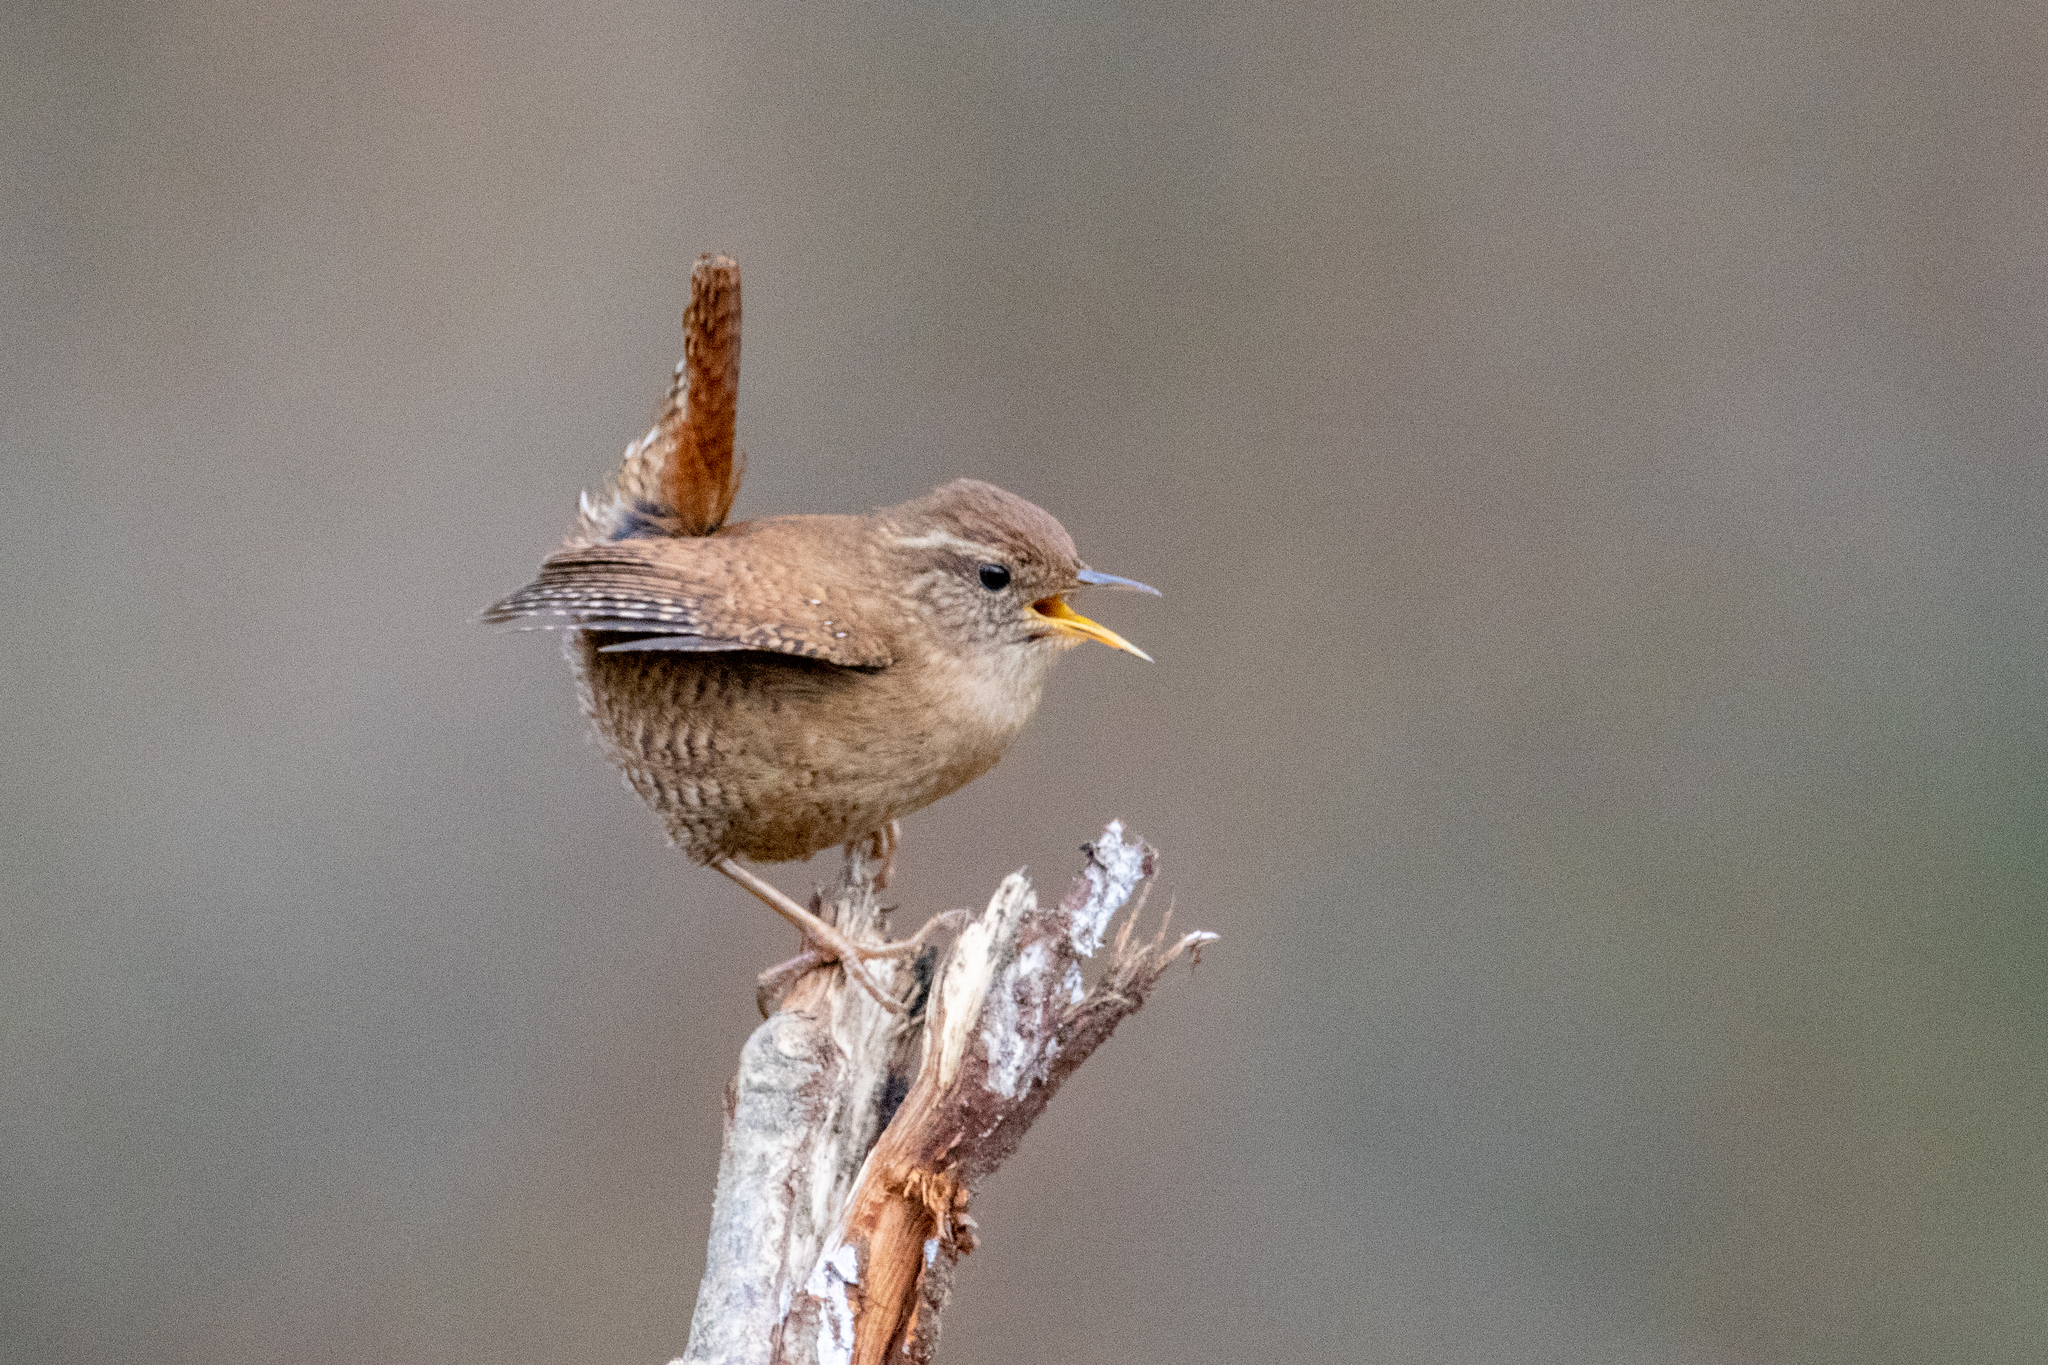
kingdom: Animalia
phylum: Chordata
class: Aves
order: Passeriformes
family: Troglodytidae
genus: Troglodytes
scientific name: Troglodytes troglodytes
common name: Eurasian wren
